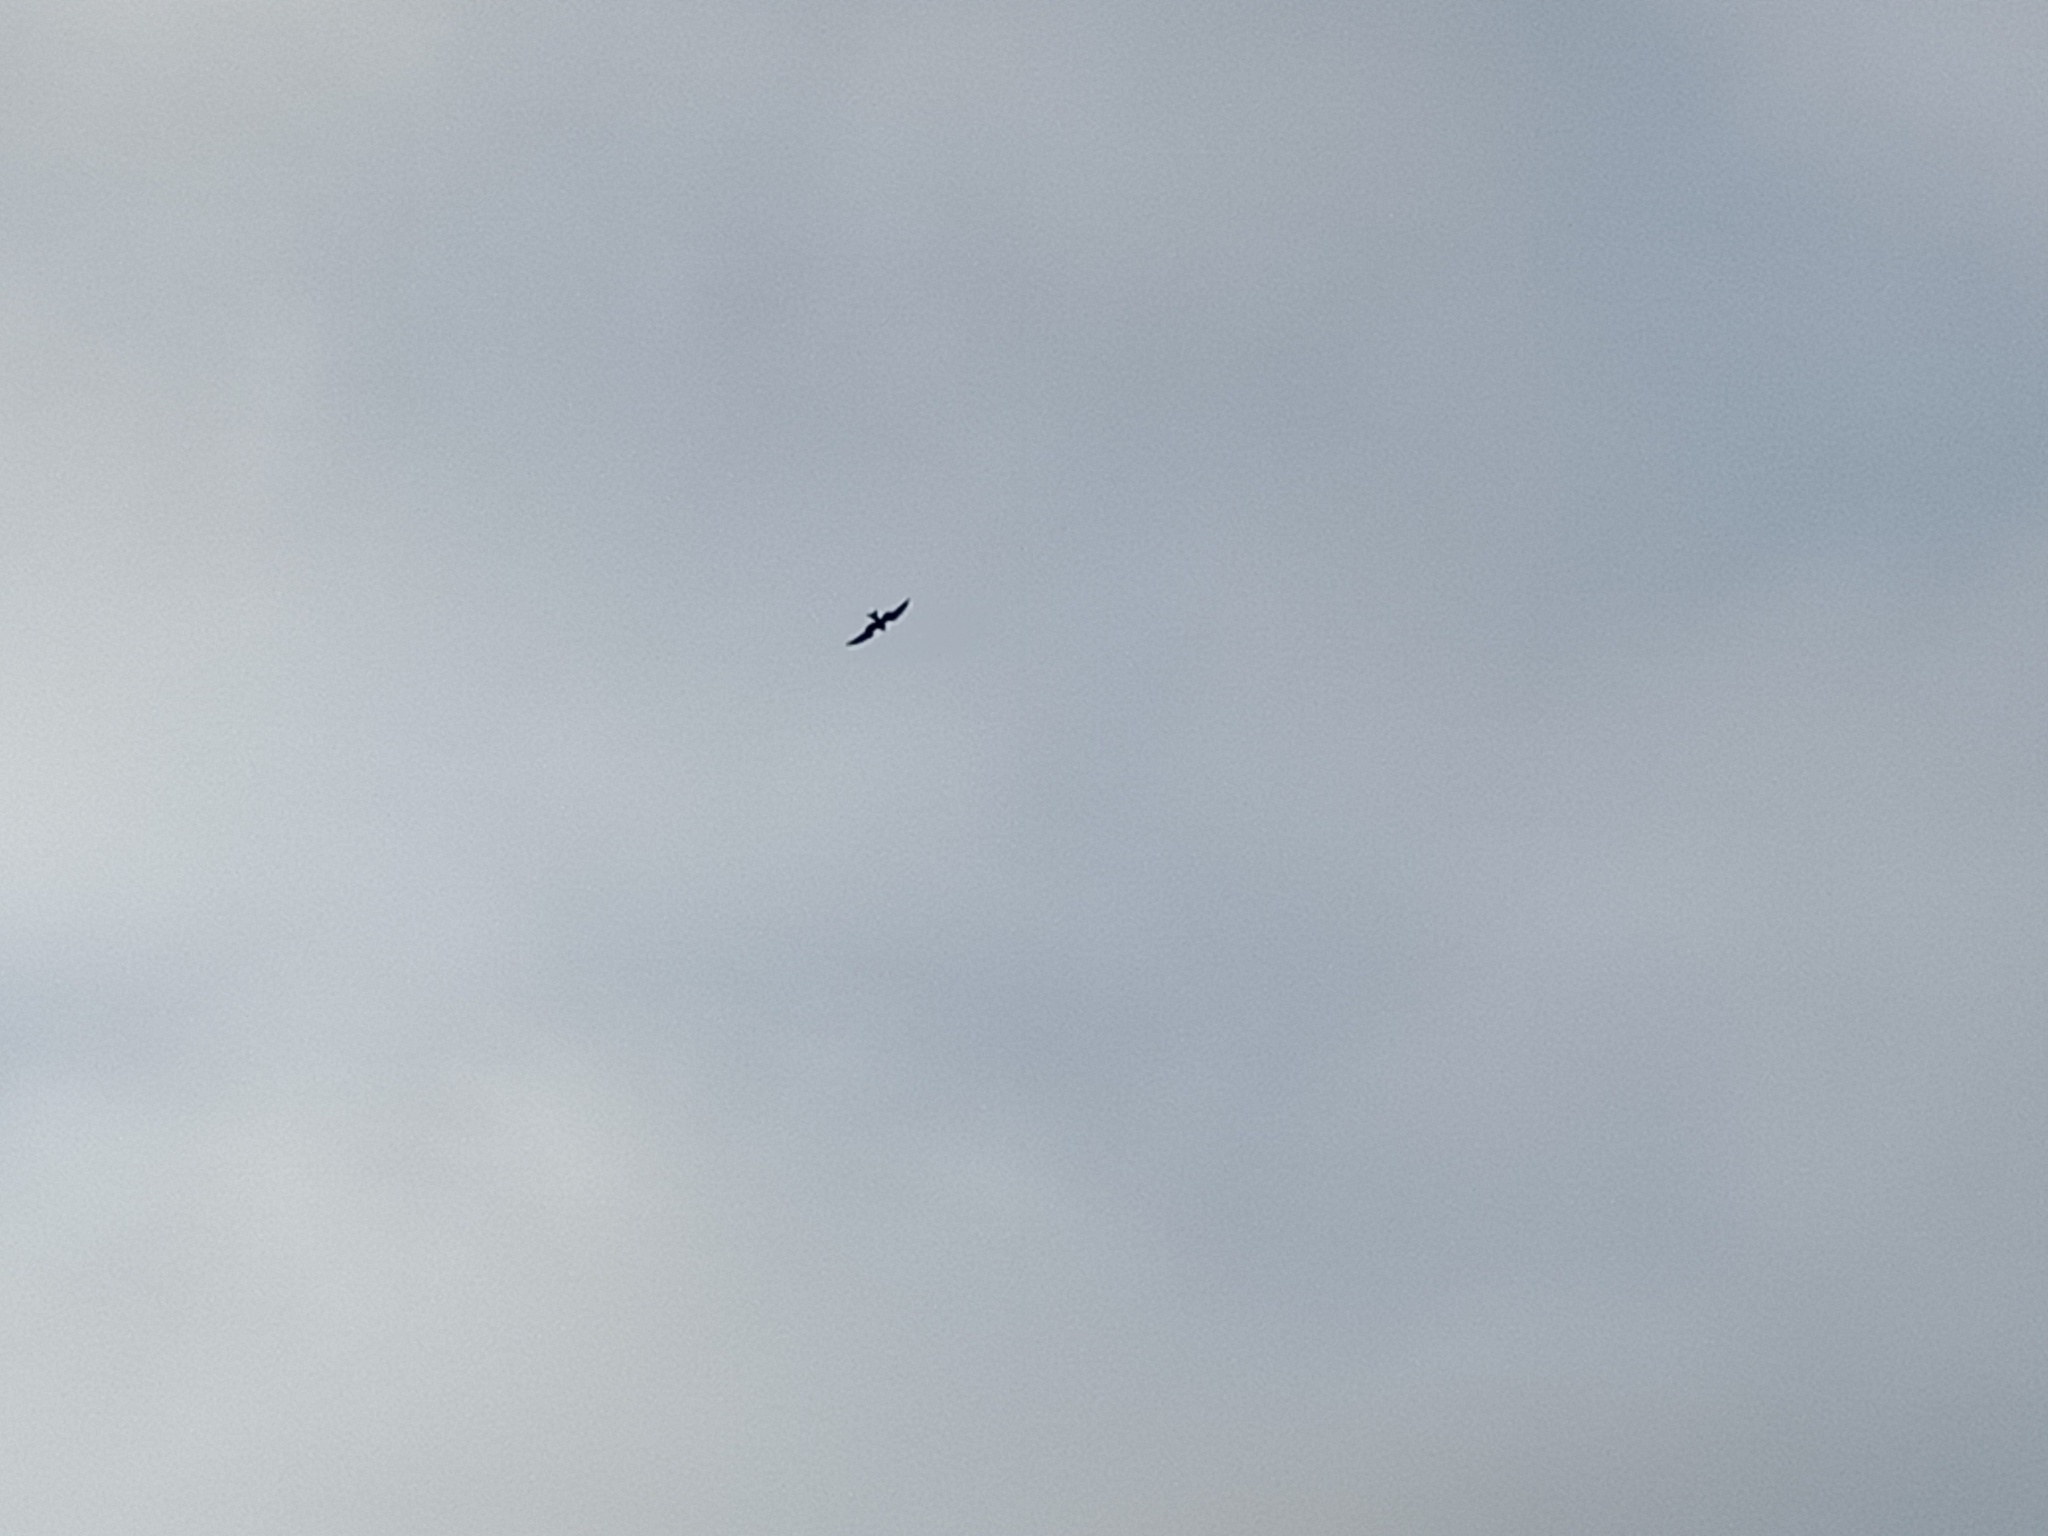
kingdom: Animalia
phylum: Chordata
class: Aves
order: Accipitriformes
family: Accipitridae
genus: Milvus
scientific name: Milvus milvus
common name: Red kite
